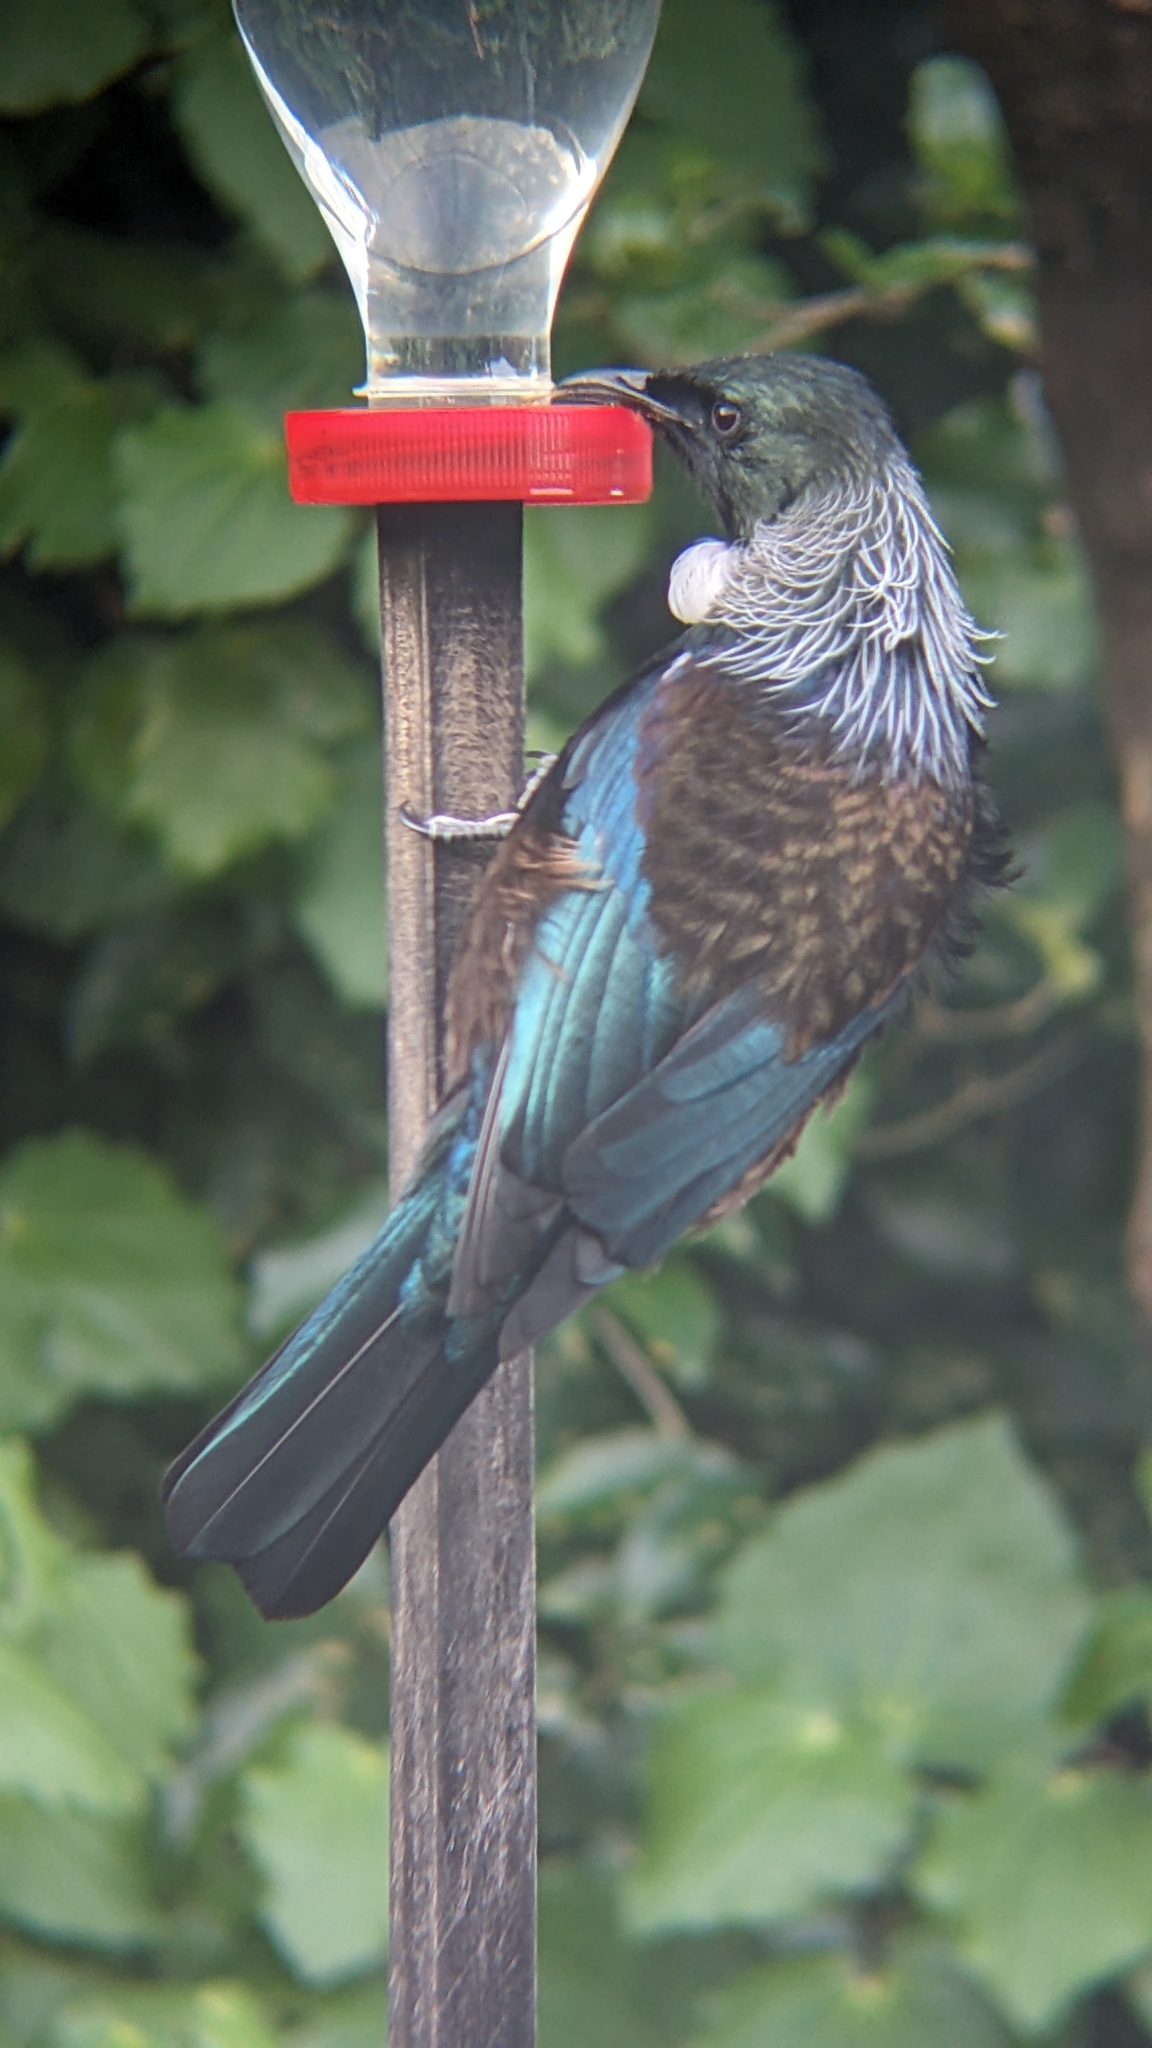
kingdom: Animalia
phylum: Chordata
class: Aves
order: Passeriformes
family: Meliphagidae
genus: Prosthemadera
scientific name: Prosthemadera novaeseelandiae
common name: Tui
